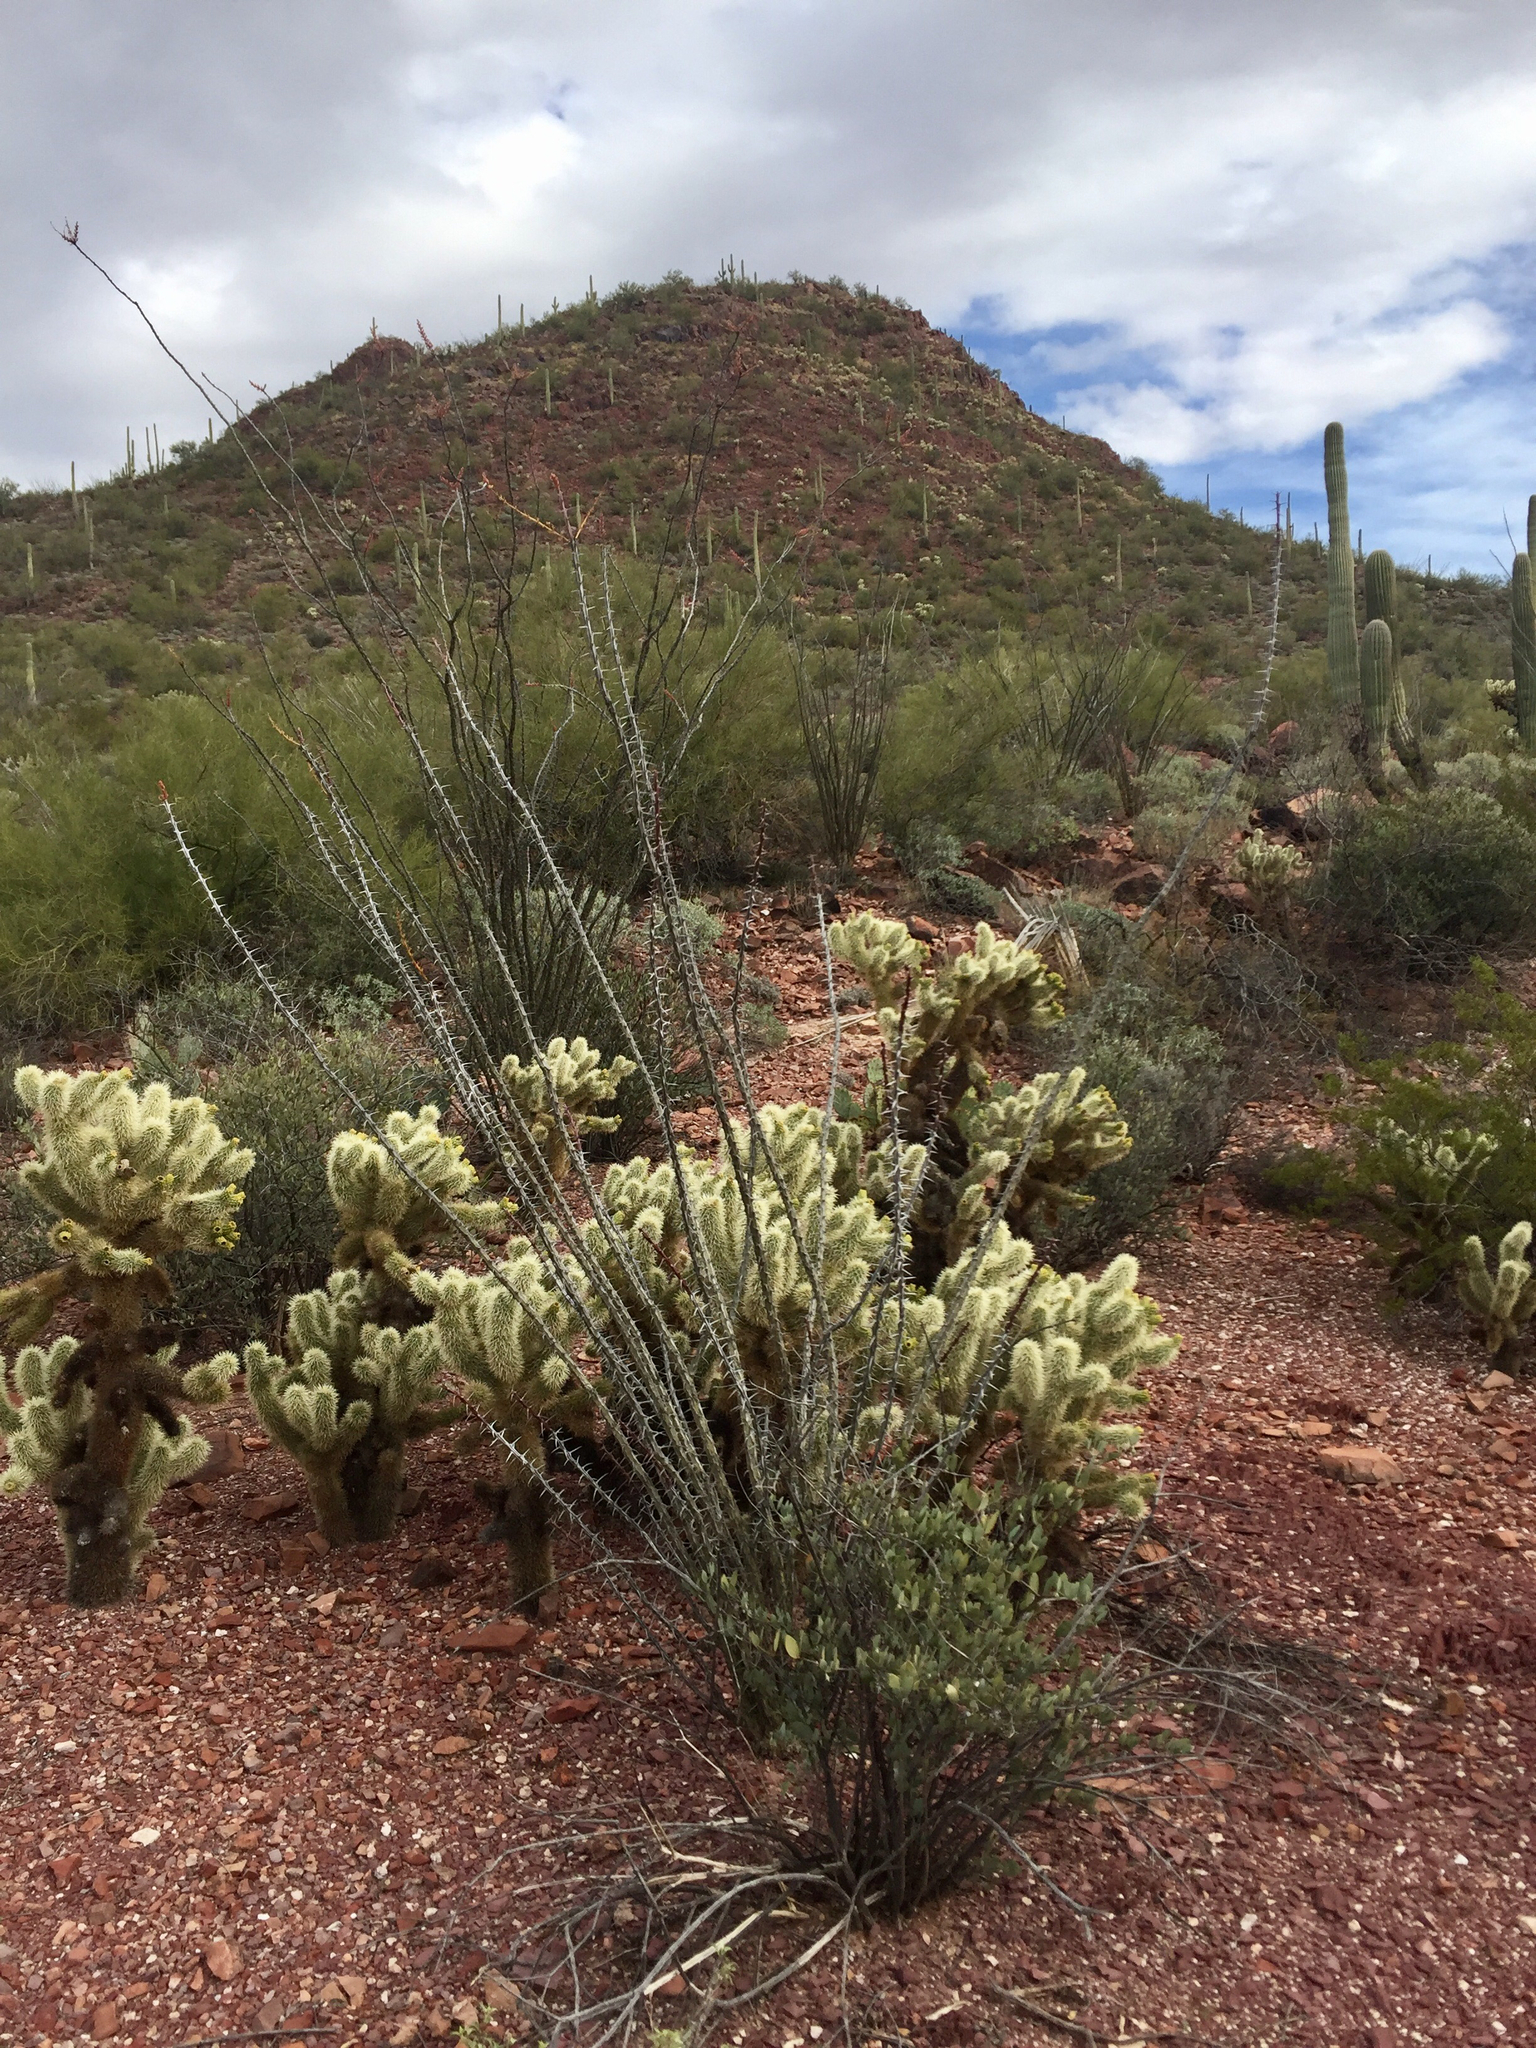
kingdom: Plantae
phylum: Tracheophyta
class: Magnoliopsida
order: Caryophyllales
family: Cactaceae
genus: Cylindropuntia
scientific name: Cylindropuntia fosbergii
